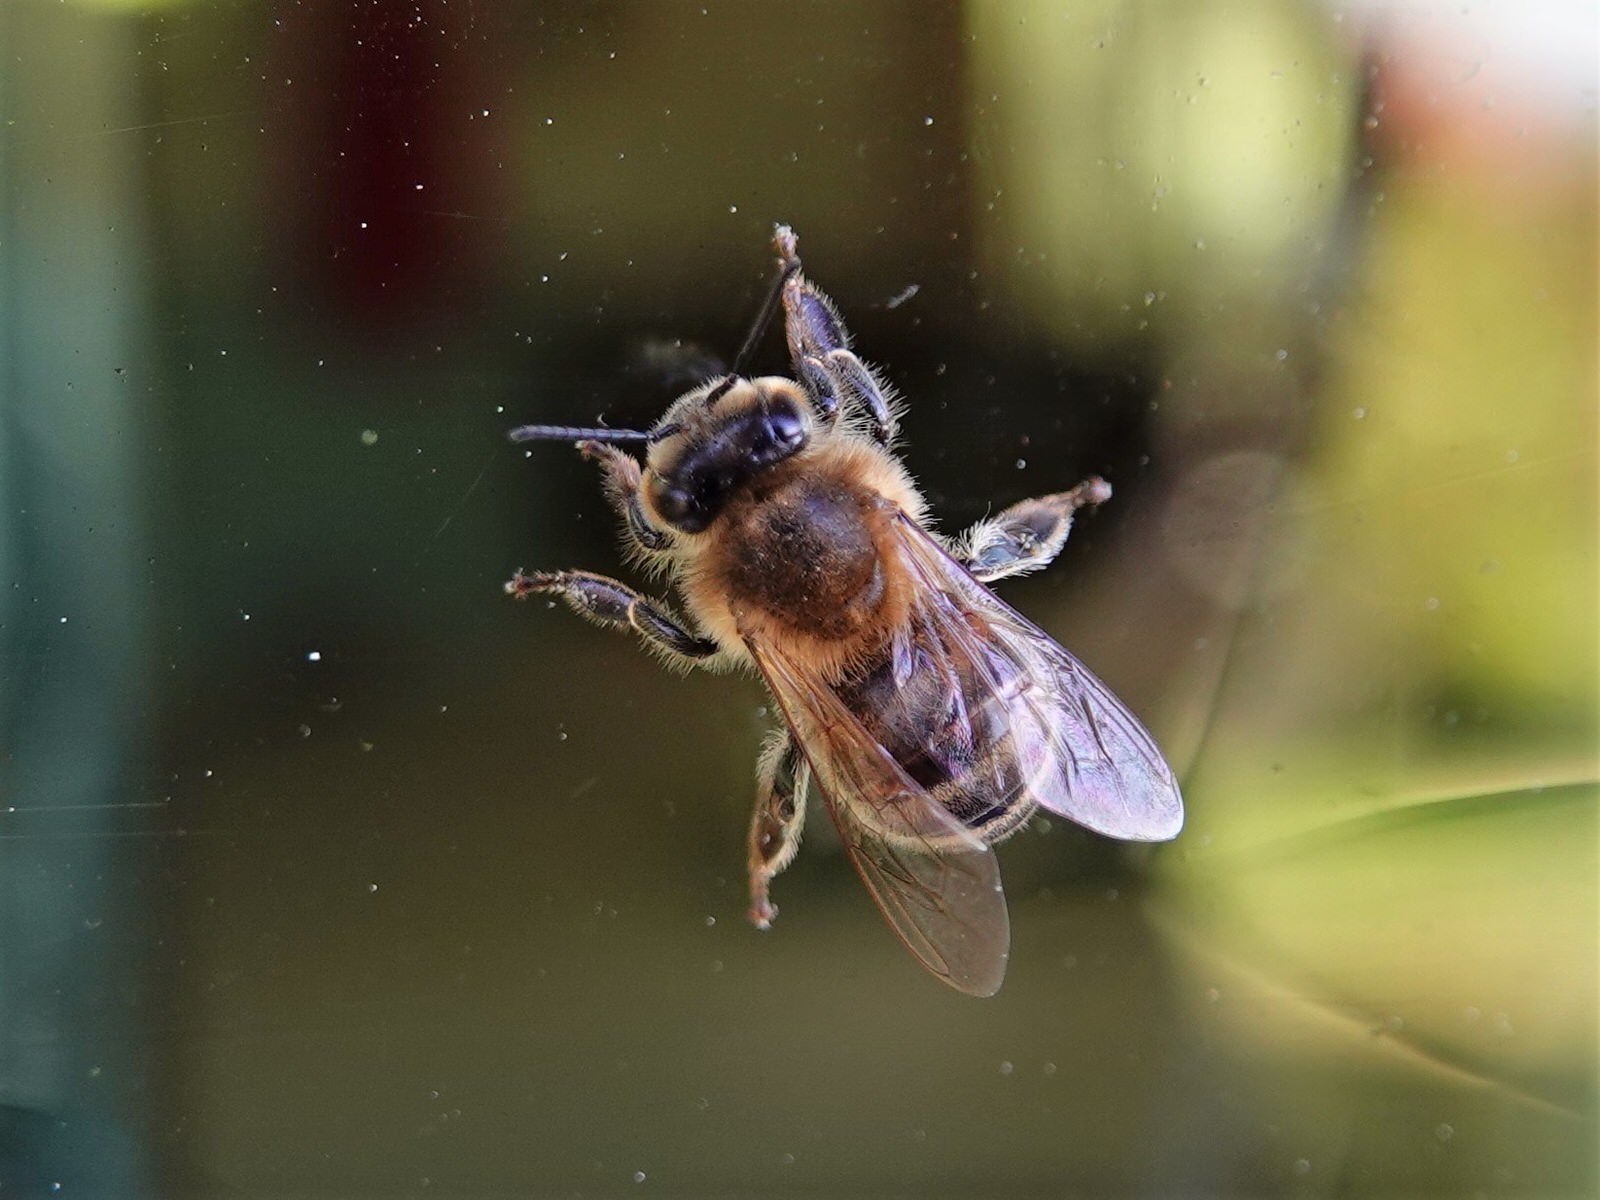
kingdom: Animalia
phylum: Arthropoda
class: Insecta
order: Hymenoptera
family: Apidae
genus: Apis
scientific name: Apis mellifera
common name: Honey bee
